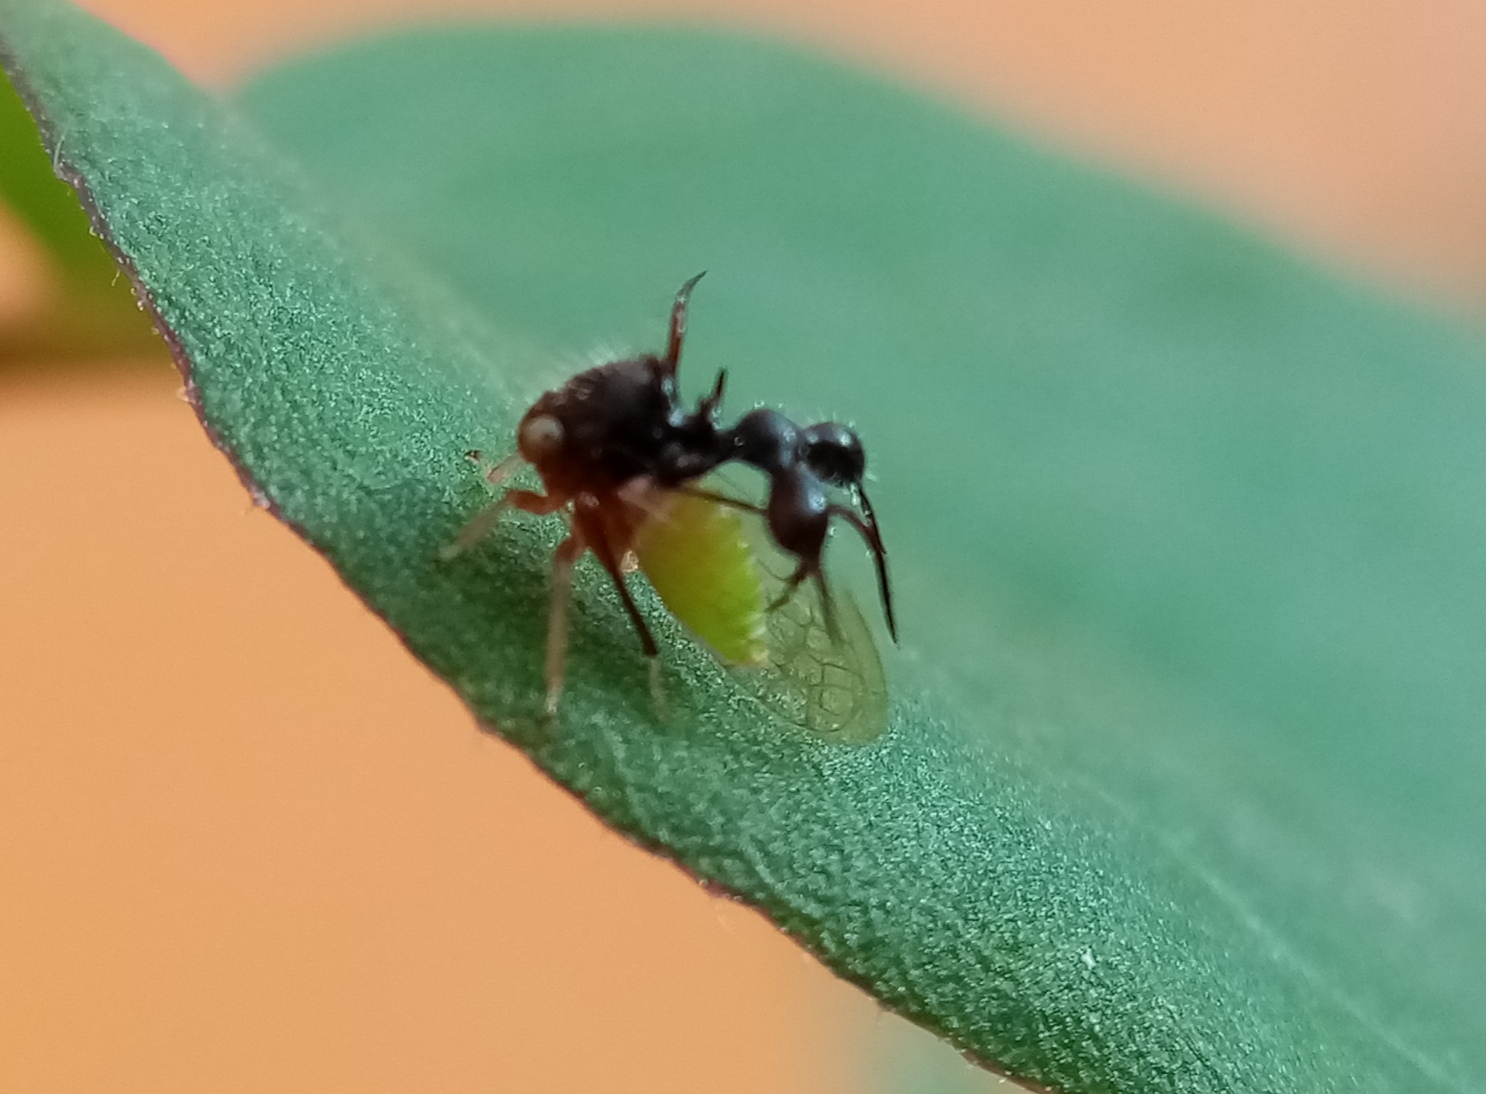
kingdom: Animalia
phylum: Arthropoda
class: Insecta
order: Hemiptera
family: Membracidae
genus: Cyphonia
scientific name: Cyphonia clavata
